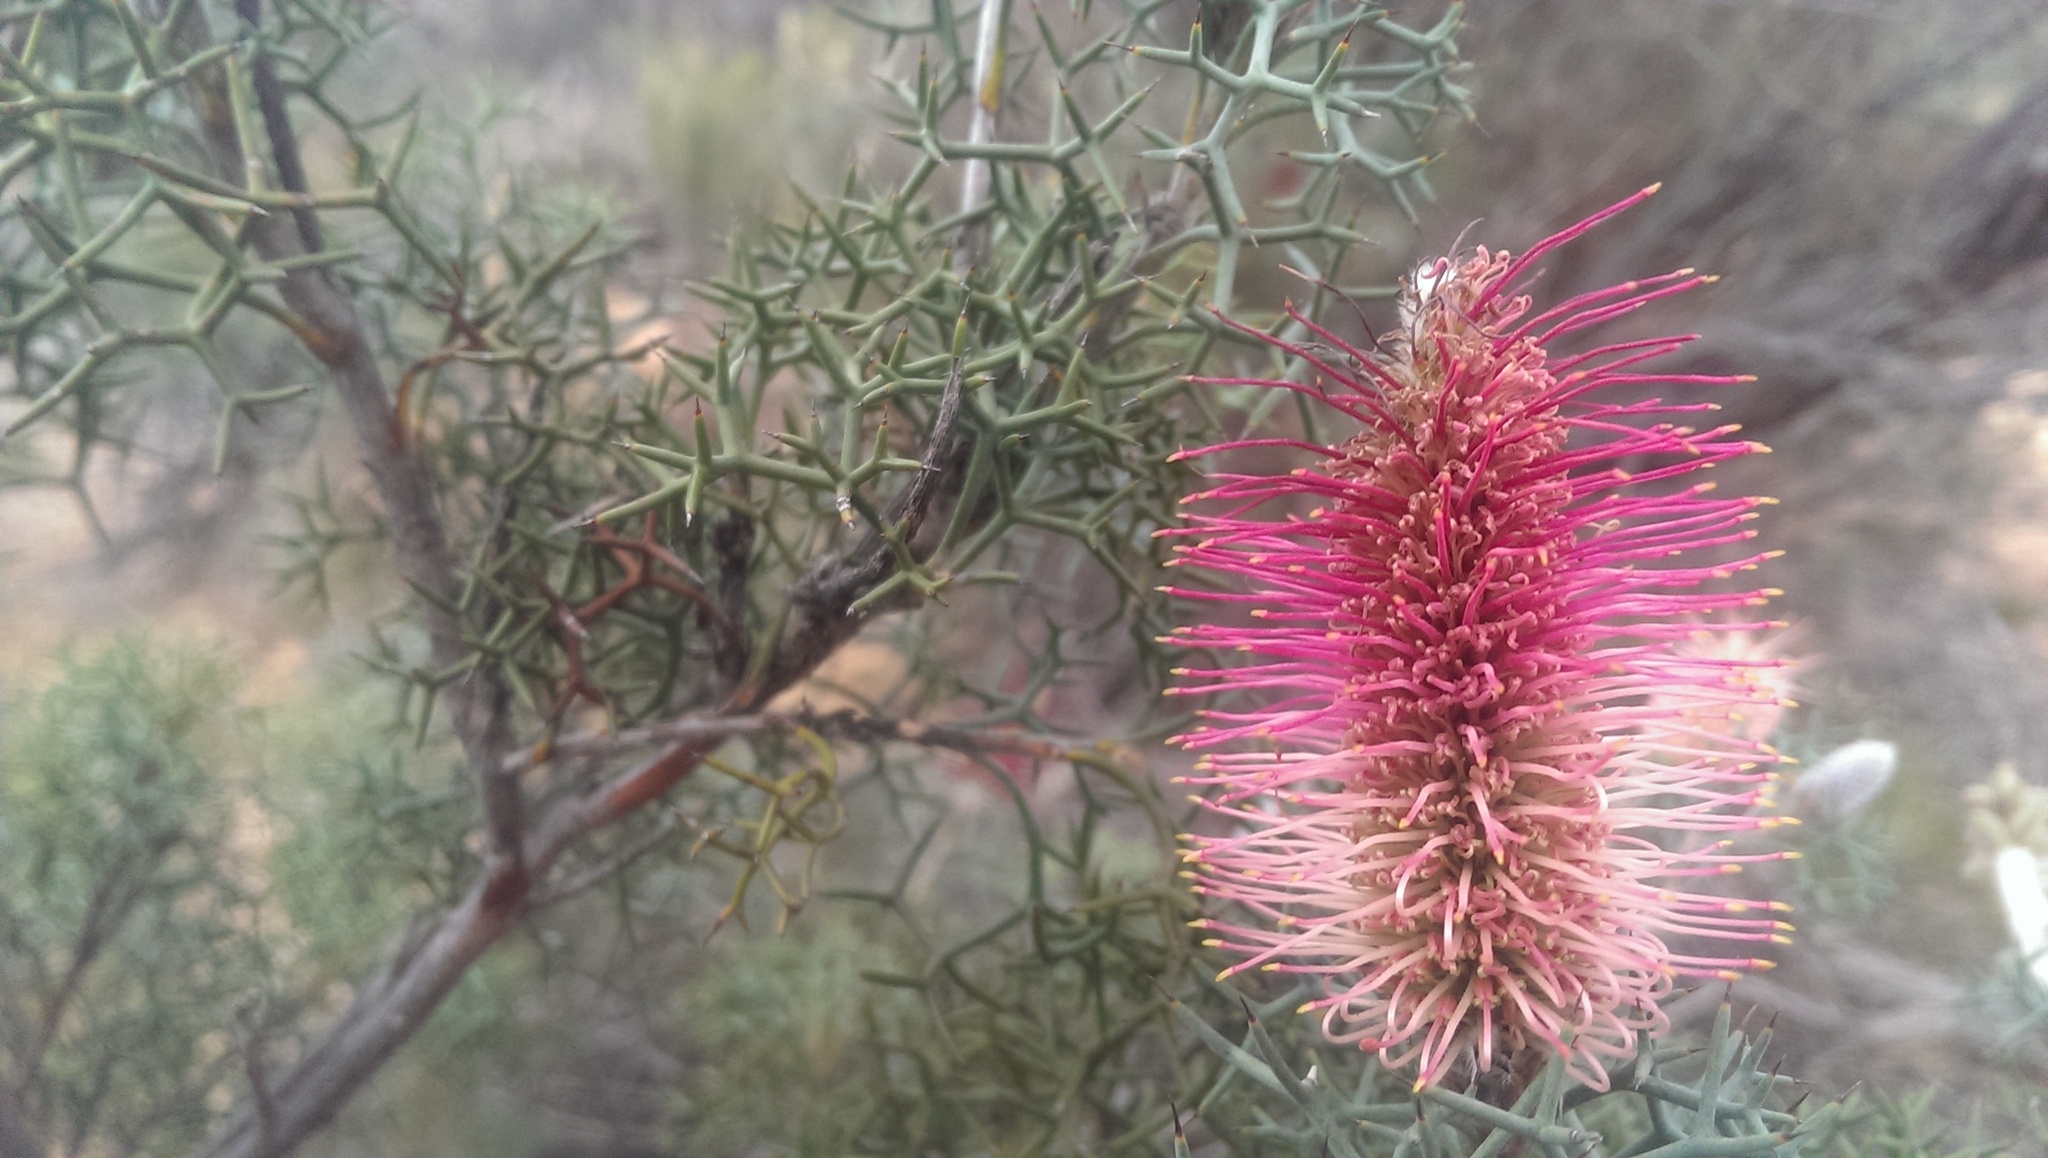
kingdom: Plantae
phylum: Tracheophyta
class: Magnoliopsida
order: Proteales
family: Proteaceae
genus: Grevillea
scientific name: Grevillea paradoxa
